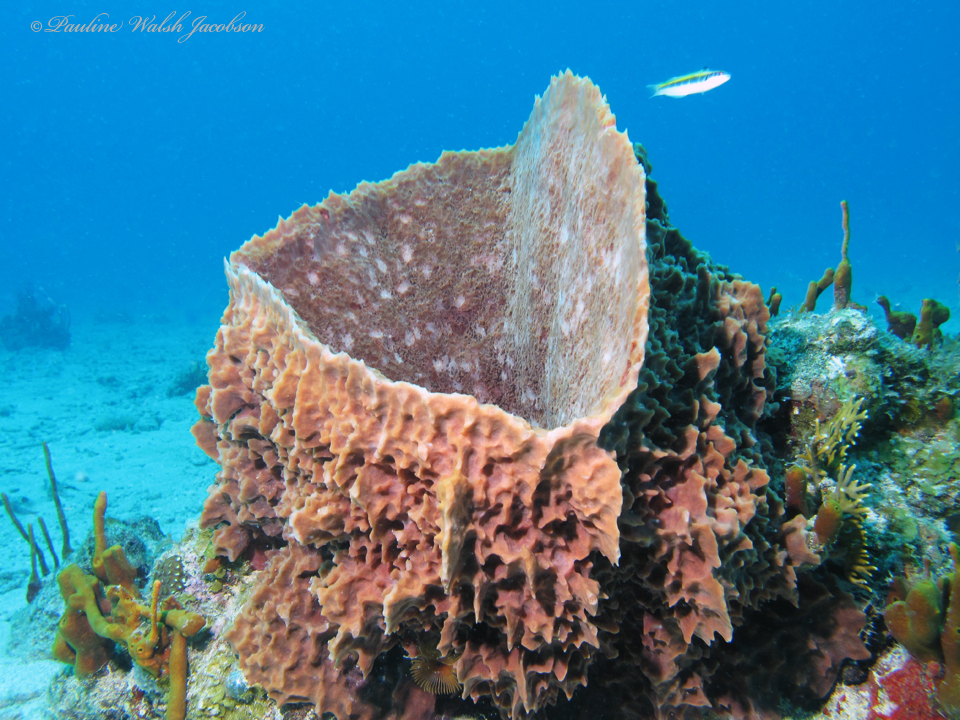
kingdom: Animalia
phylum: Porifera
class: Demospongiae
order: Haplosclerida
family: Petrosiidae
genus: Xestospongia
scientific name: Xestospongia muta
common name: Giant barrel sponge
